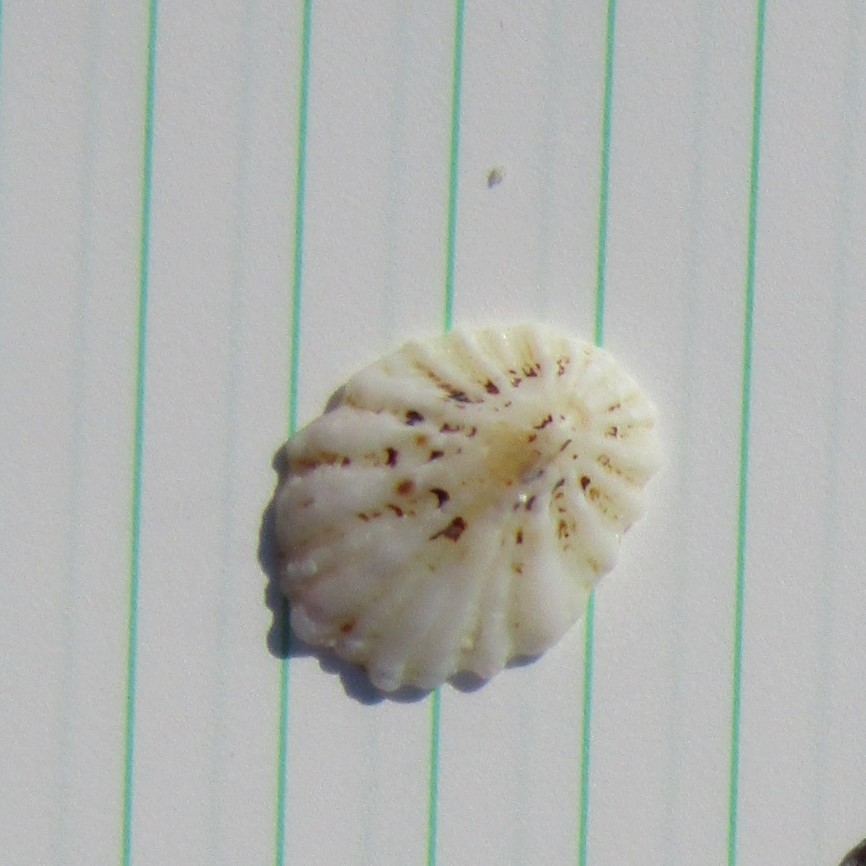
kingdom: Animalia
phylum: Mollusca
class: Gastropoda
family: Lottiidae
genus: Radiacmea
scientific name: Radiacmea inconspicua
